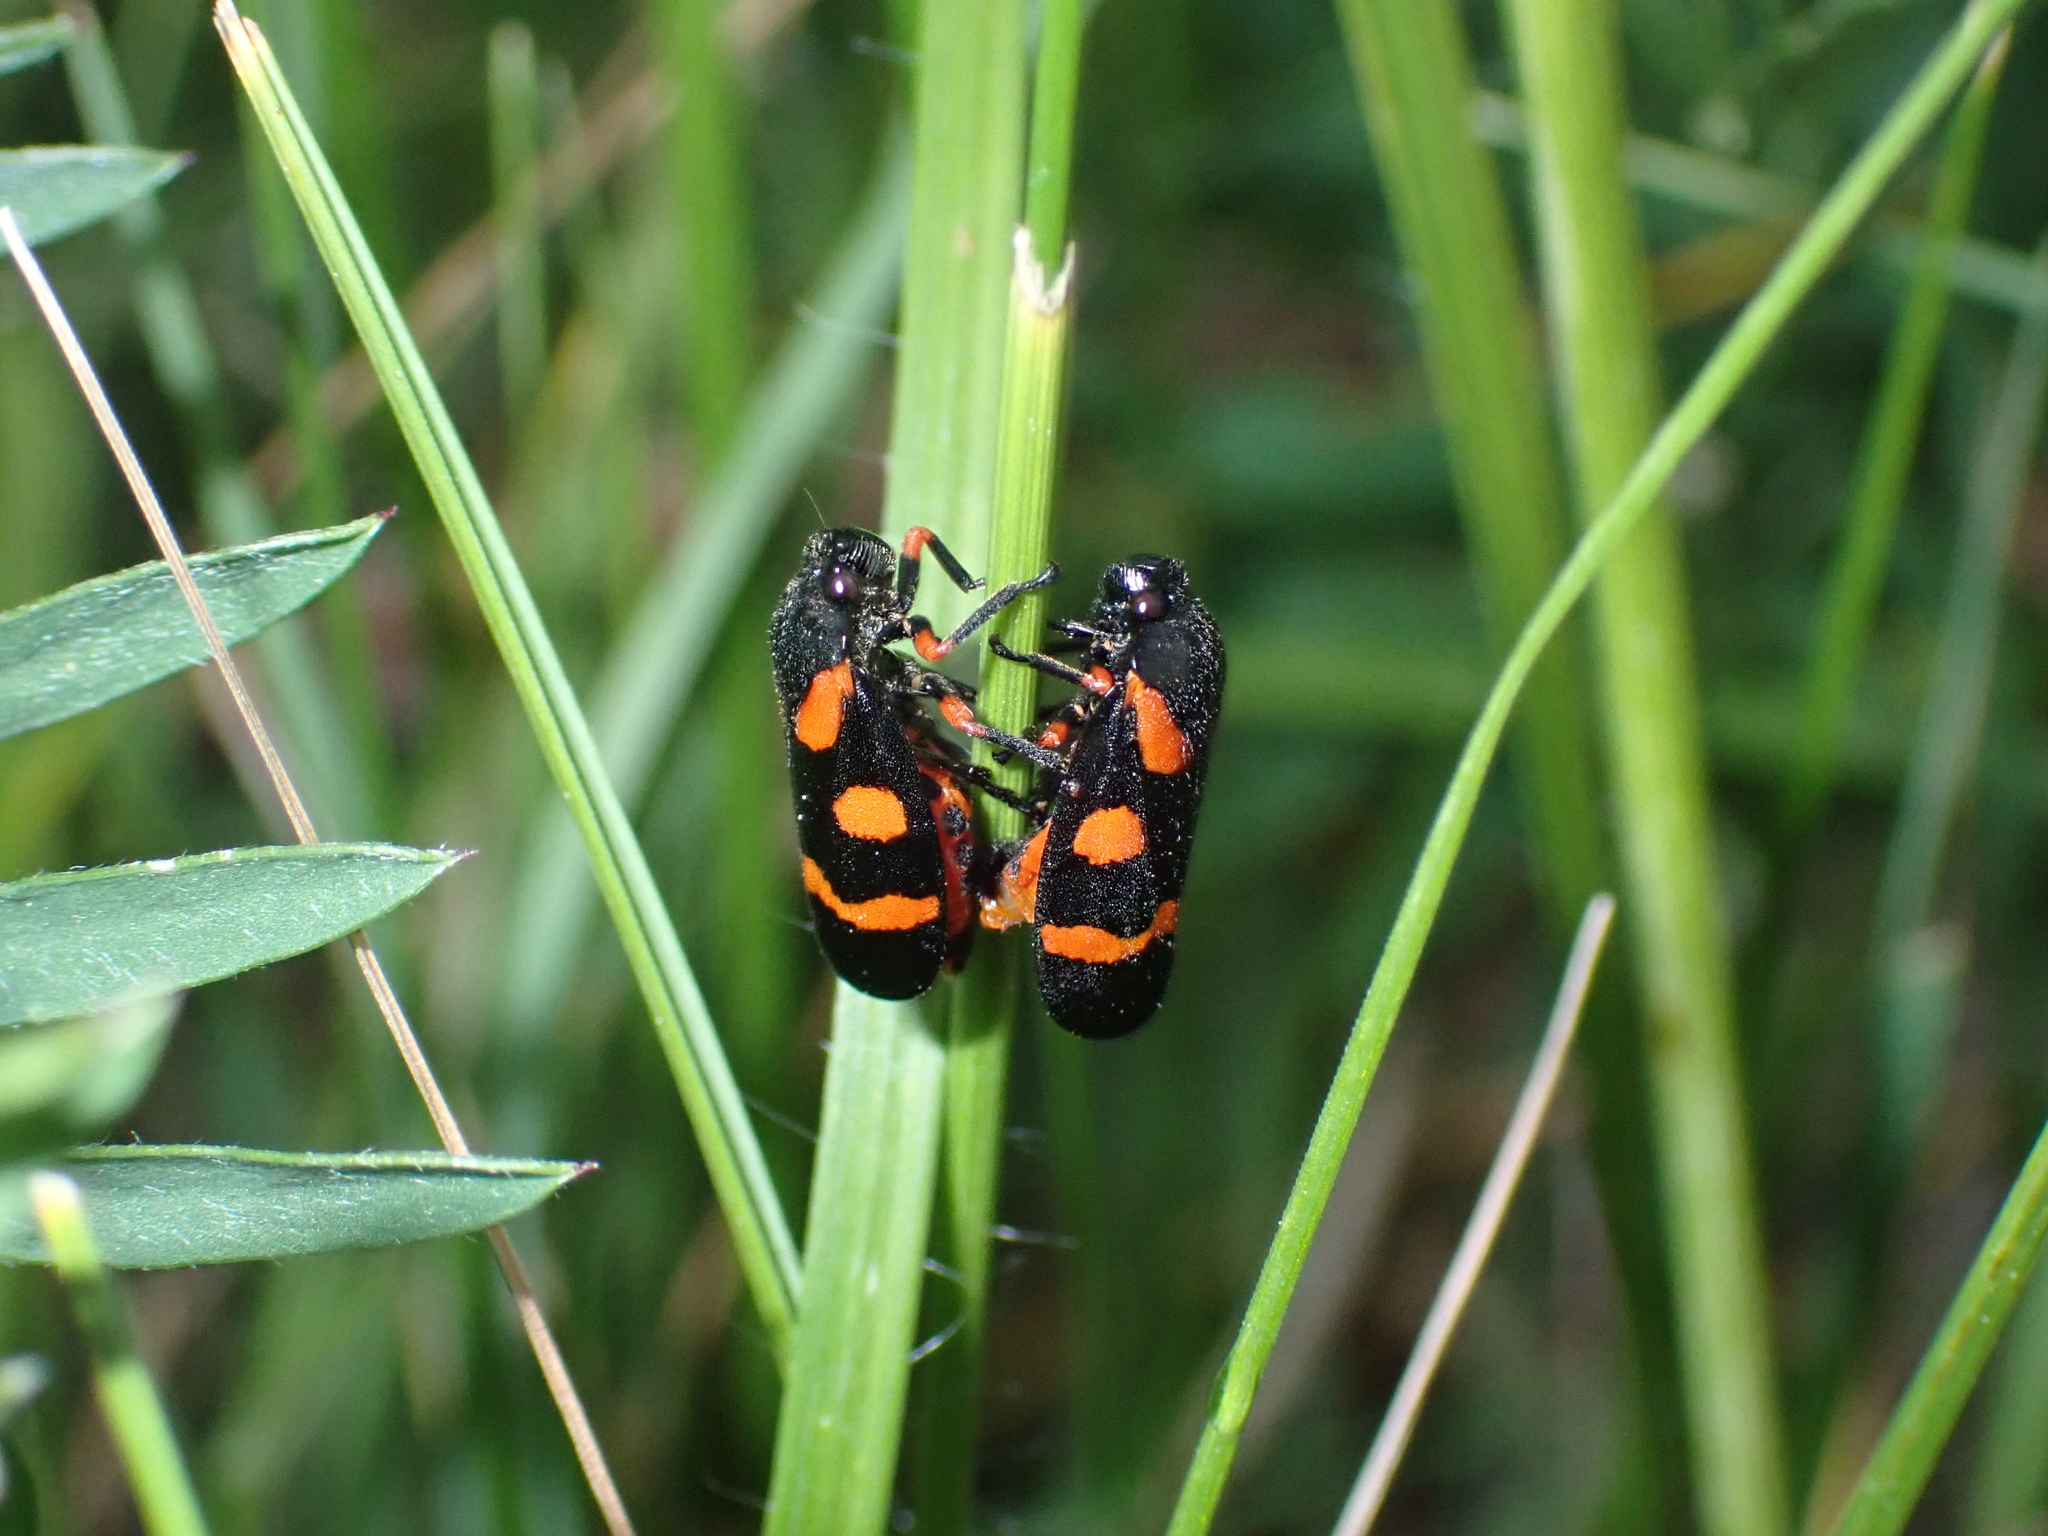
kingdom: Animalia
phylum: Arthropoda
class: Insecta
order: Hemiptera
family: Cercopidae
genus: Cercopis
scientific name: Cercopis intermedia
